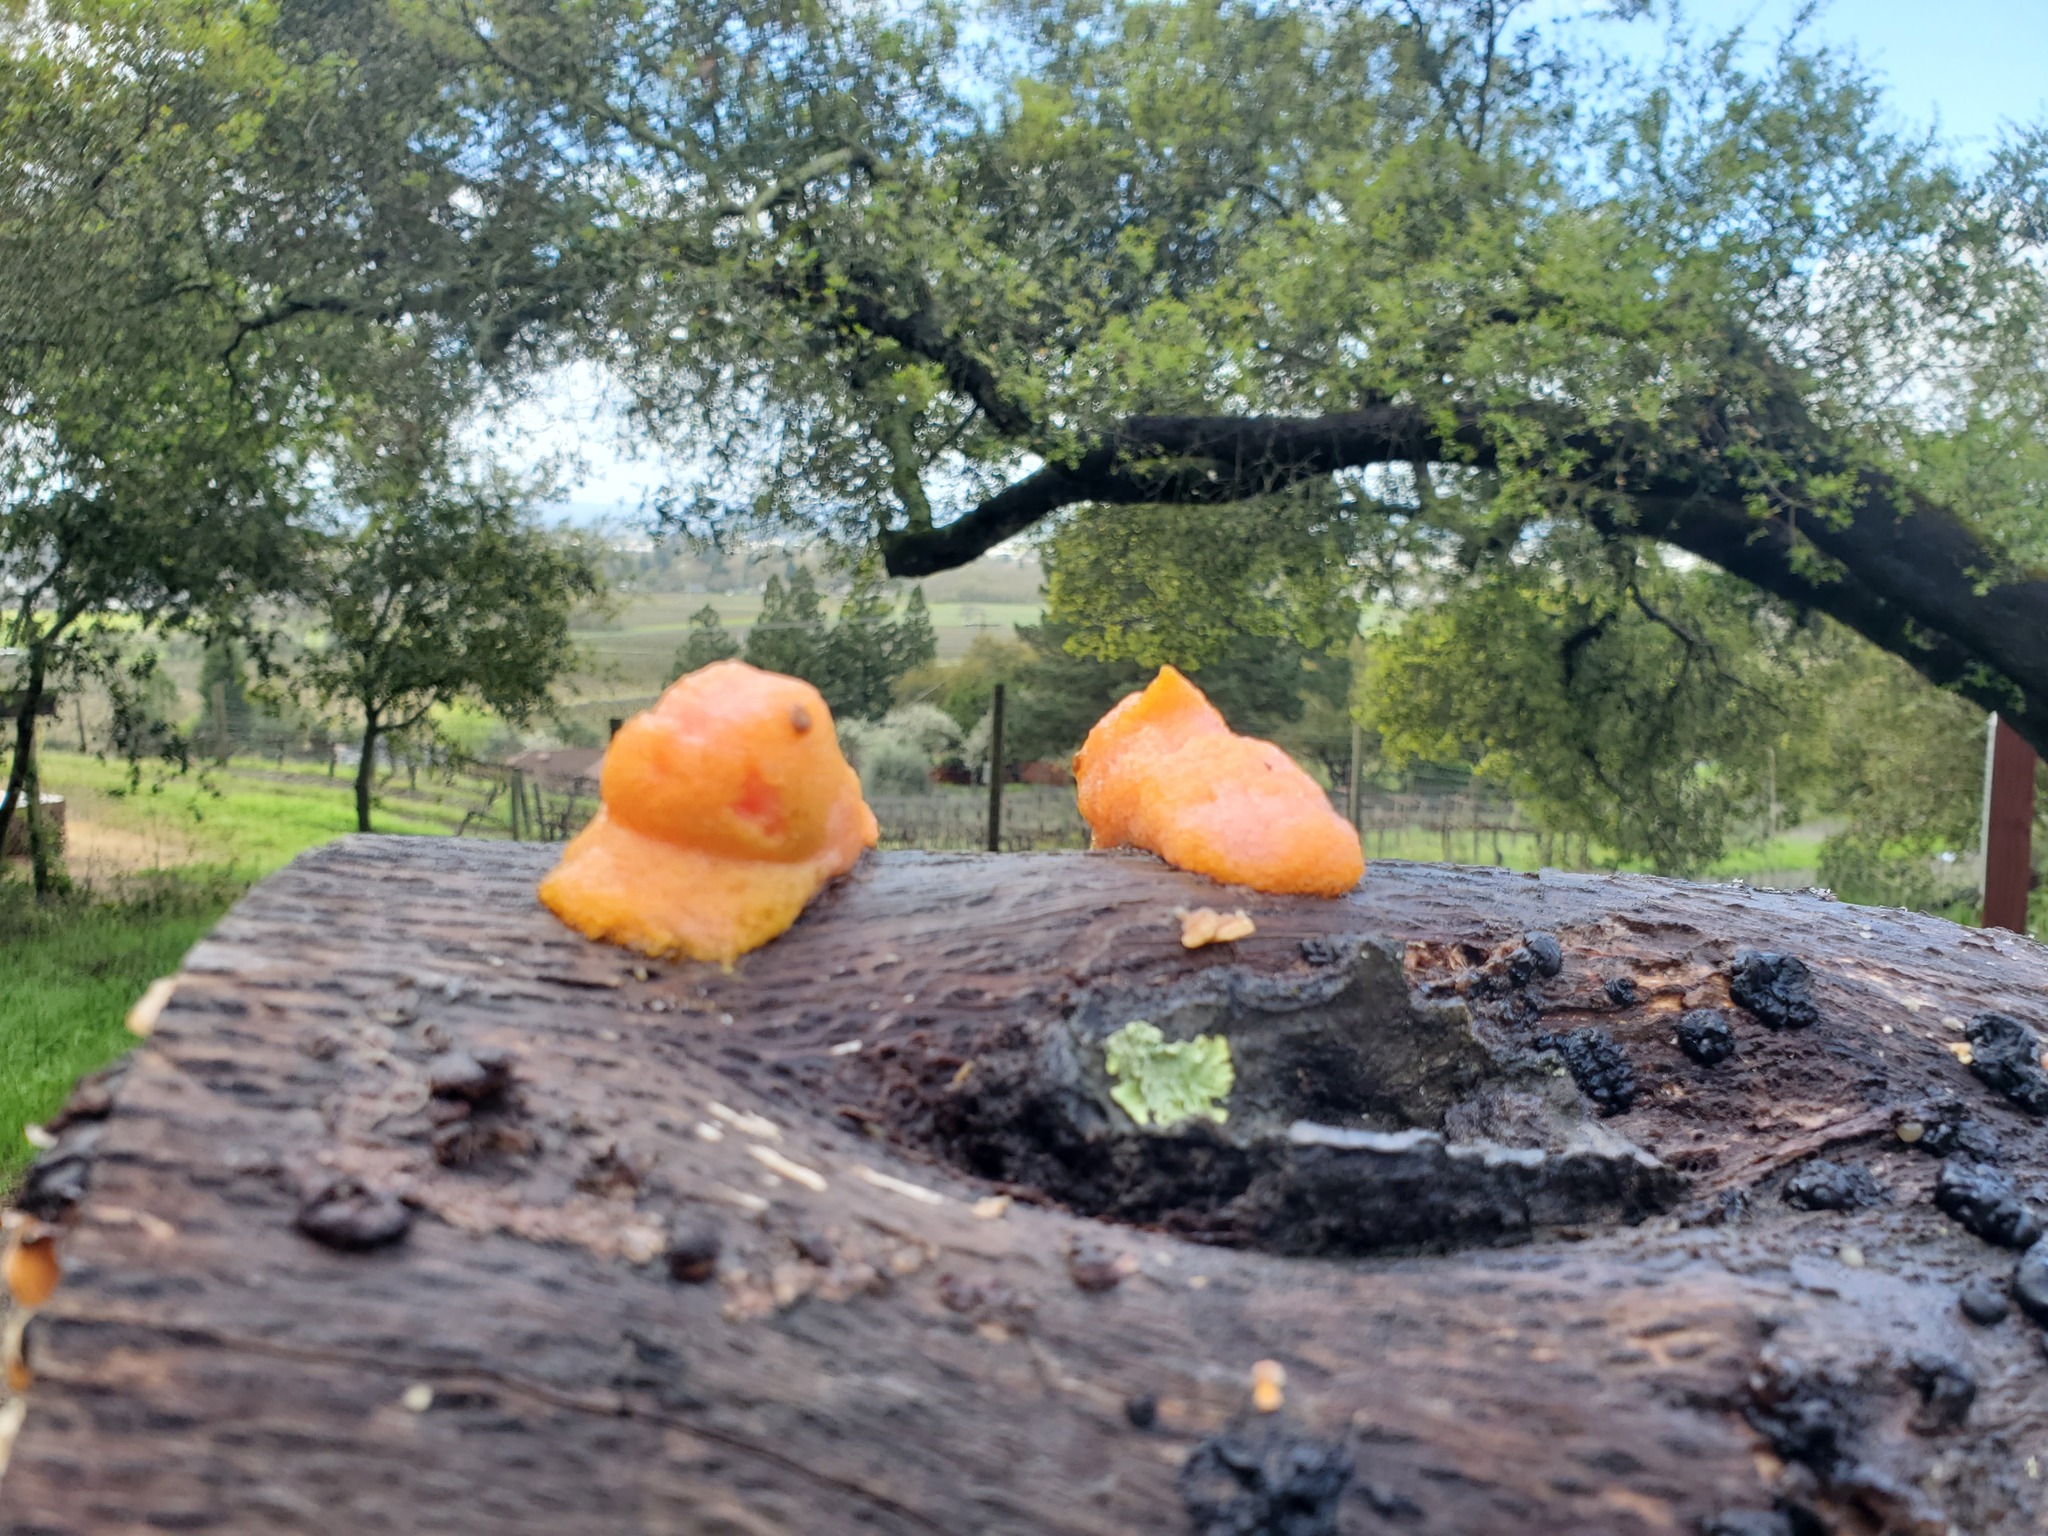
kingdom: Fungi
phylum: Ascomycota
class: Sordariomycetes
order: Hypocreales
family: Nectriaceae
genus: Fusicolla
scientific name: Fusicolla merismoides
